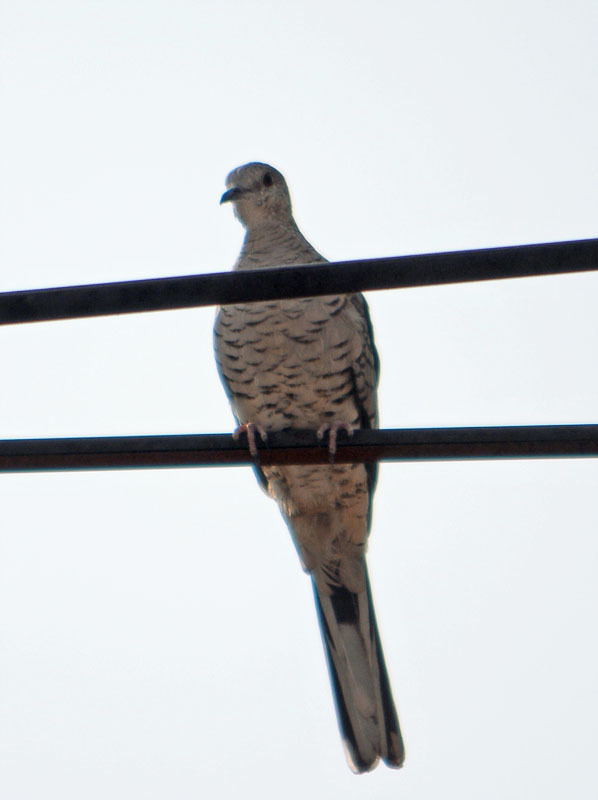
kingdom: Animalia
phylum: Chordata
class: Aves
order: Columbiformes
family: Columbidae
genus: Columbina
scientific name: Columbina inca
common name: Inca dove
